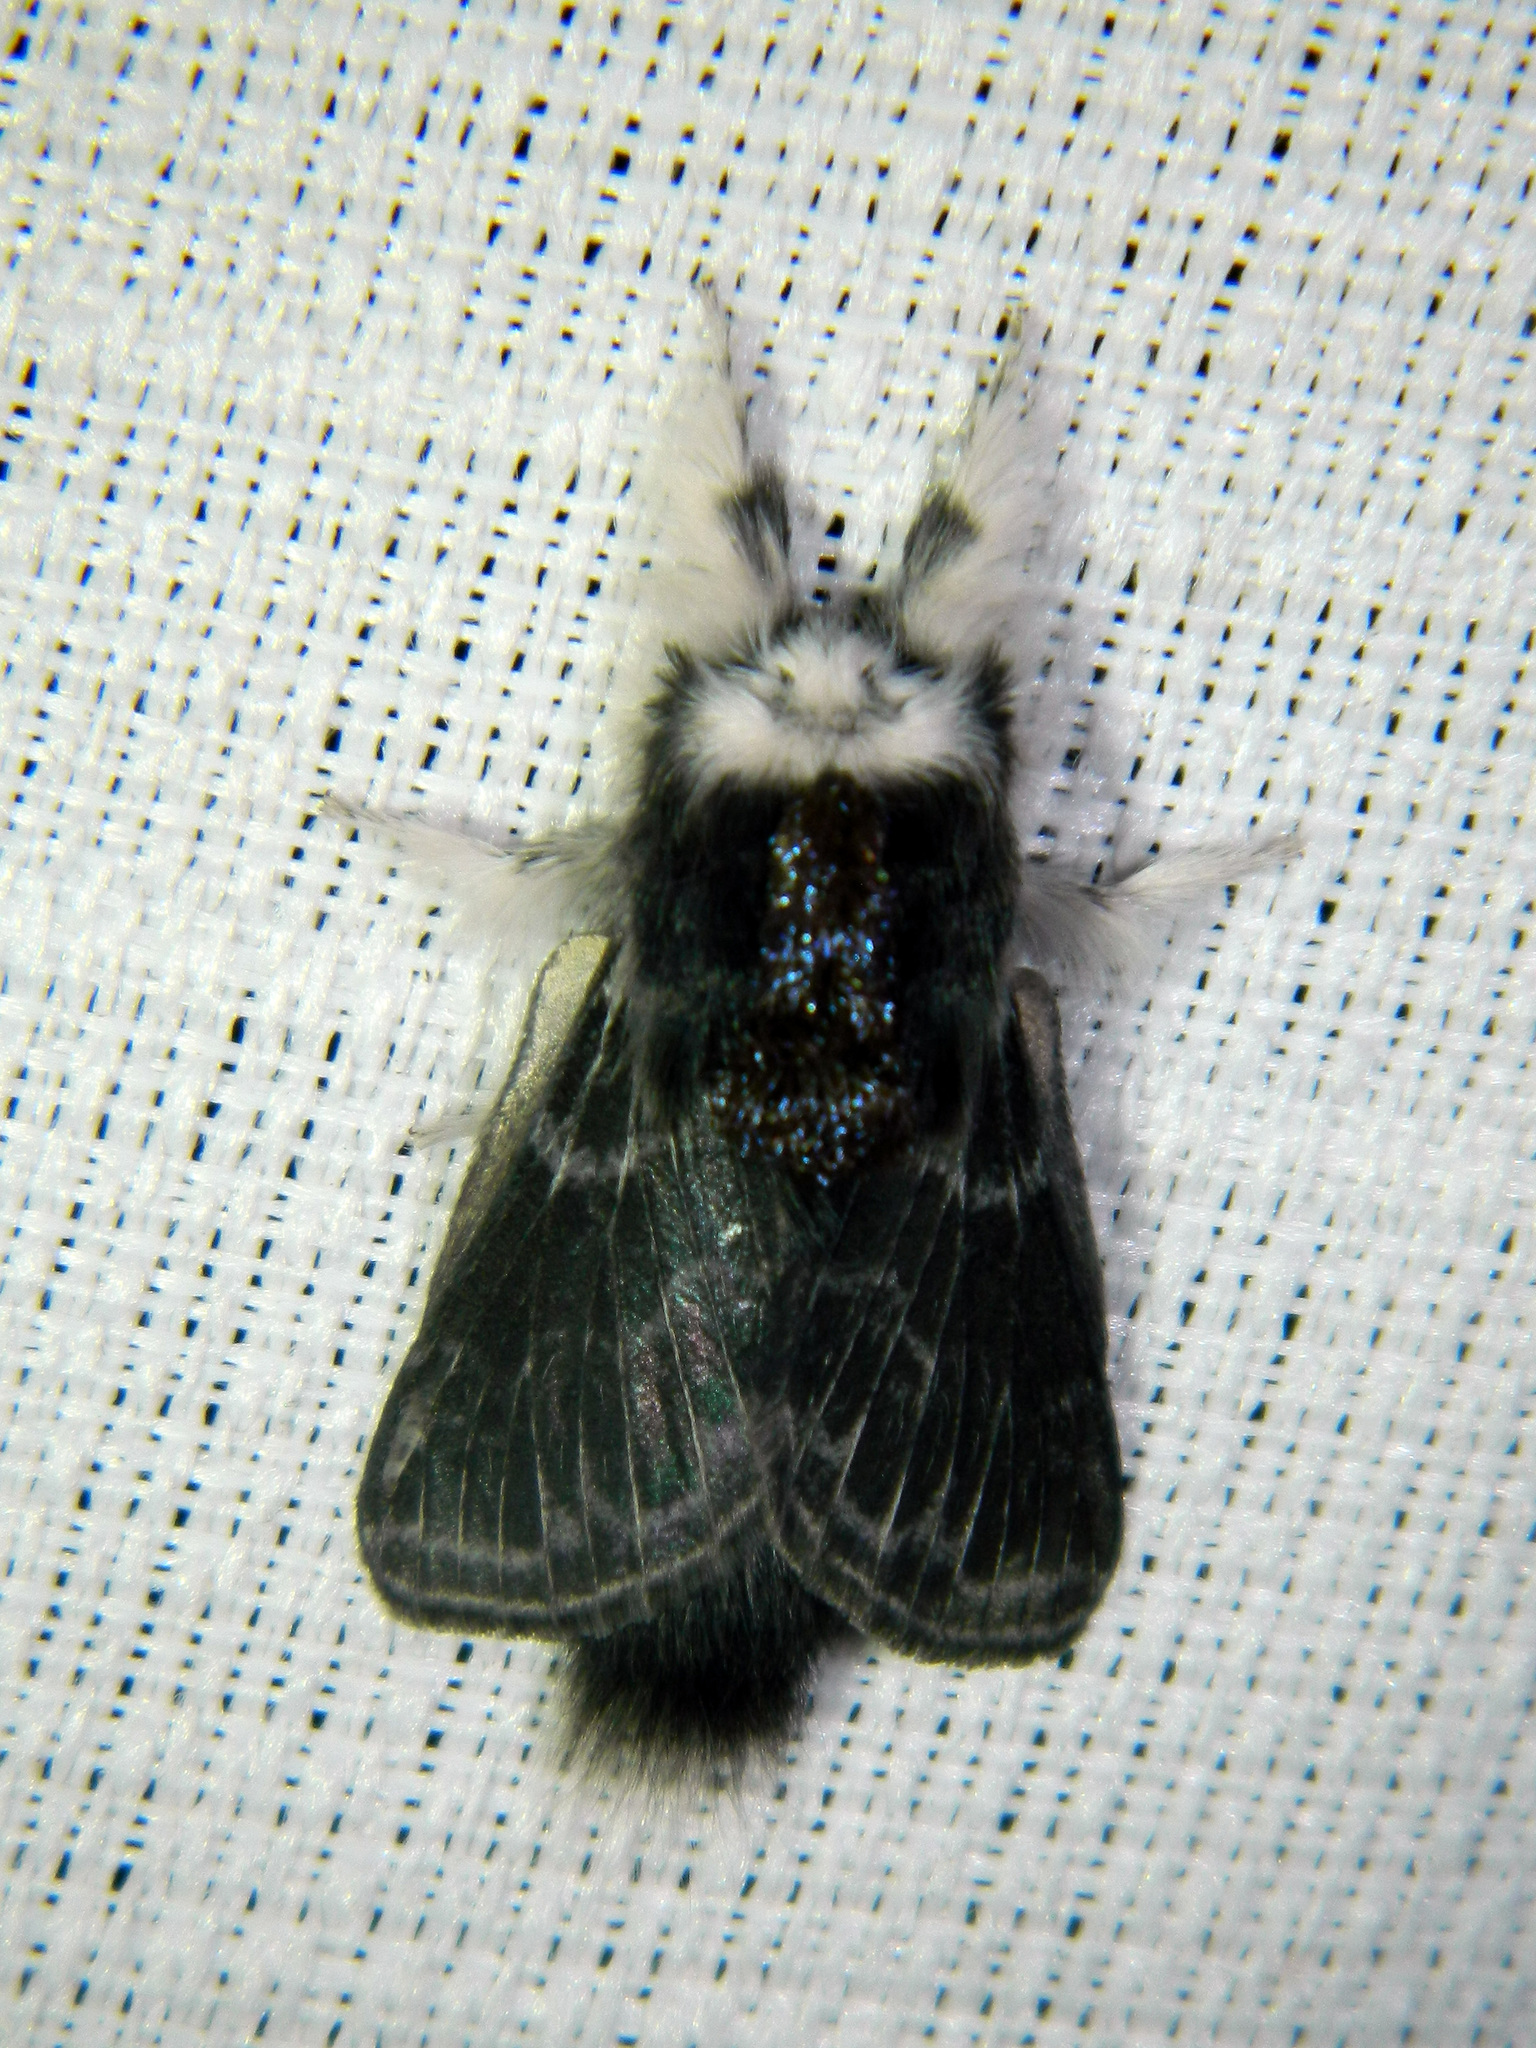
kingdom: Animalia
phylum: Arthropoda
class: Insecta
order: Lepidoptera
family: Lasiocampidae
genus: Tolype
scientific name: Tolype laricis
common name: Larch tolype moth
